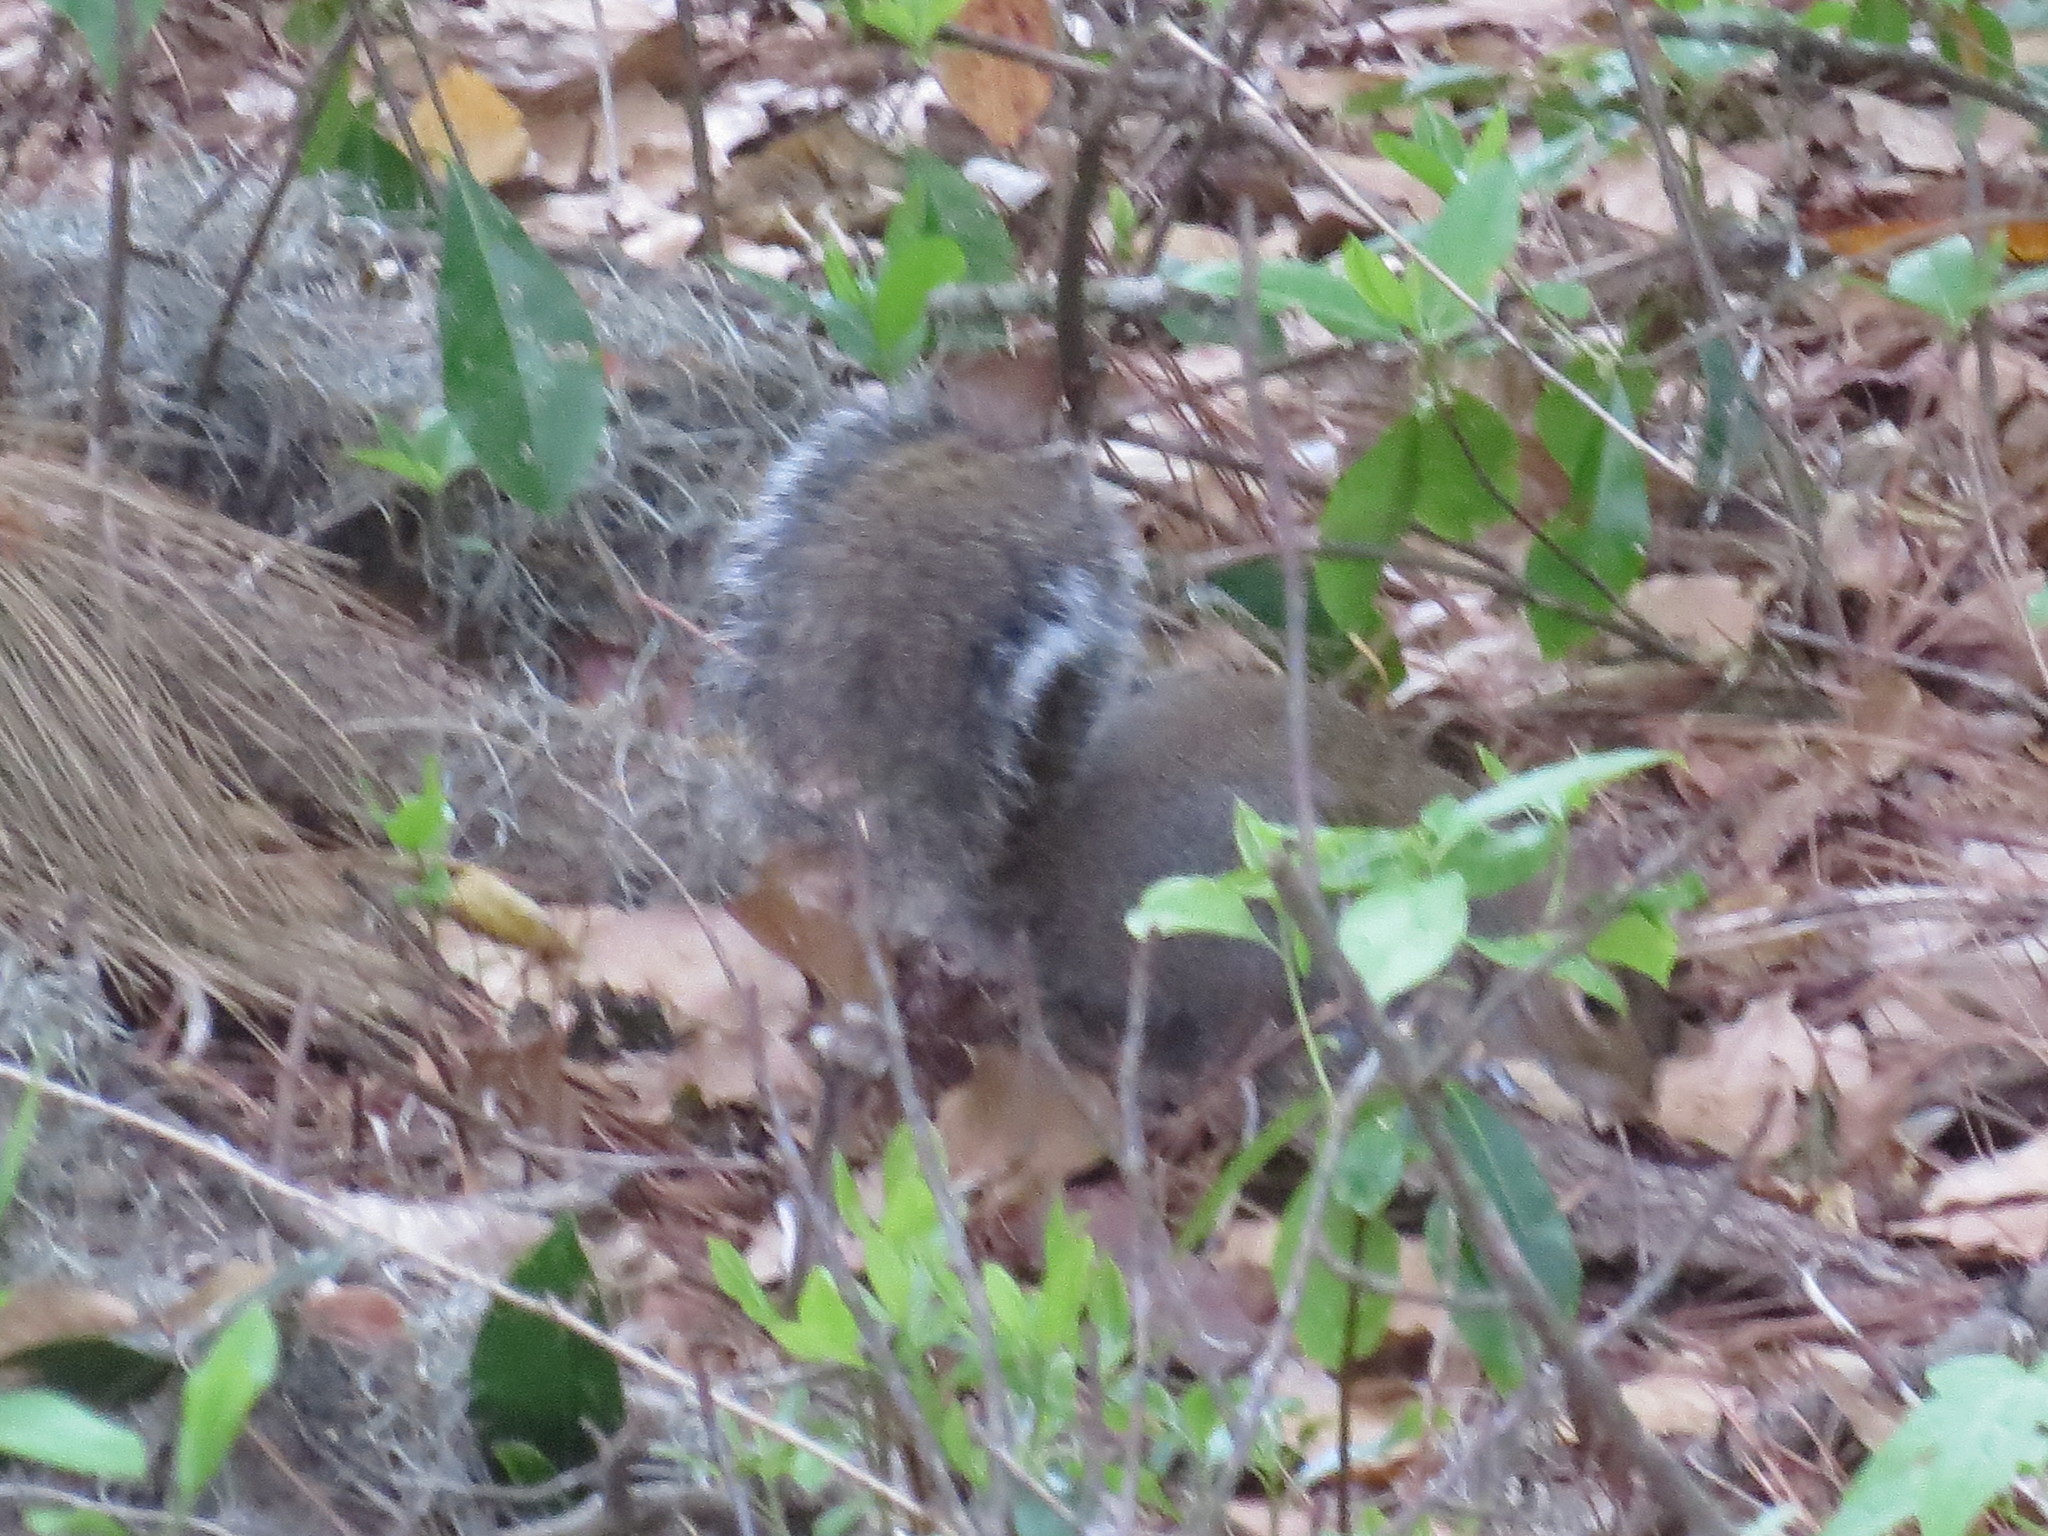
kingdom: Animalia
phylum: Chordata
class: Mammalia
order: Rodentia
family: Sciuridae
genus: Sciurus
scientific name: Sciurus carolinensis
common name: Eastern gray squirrel
